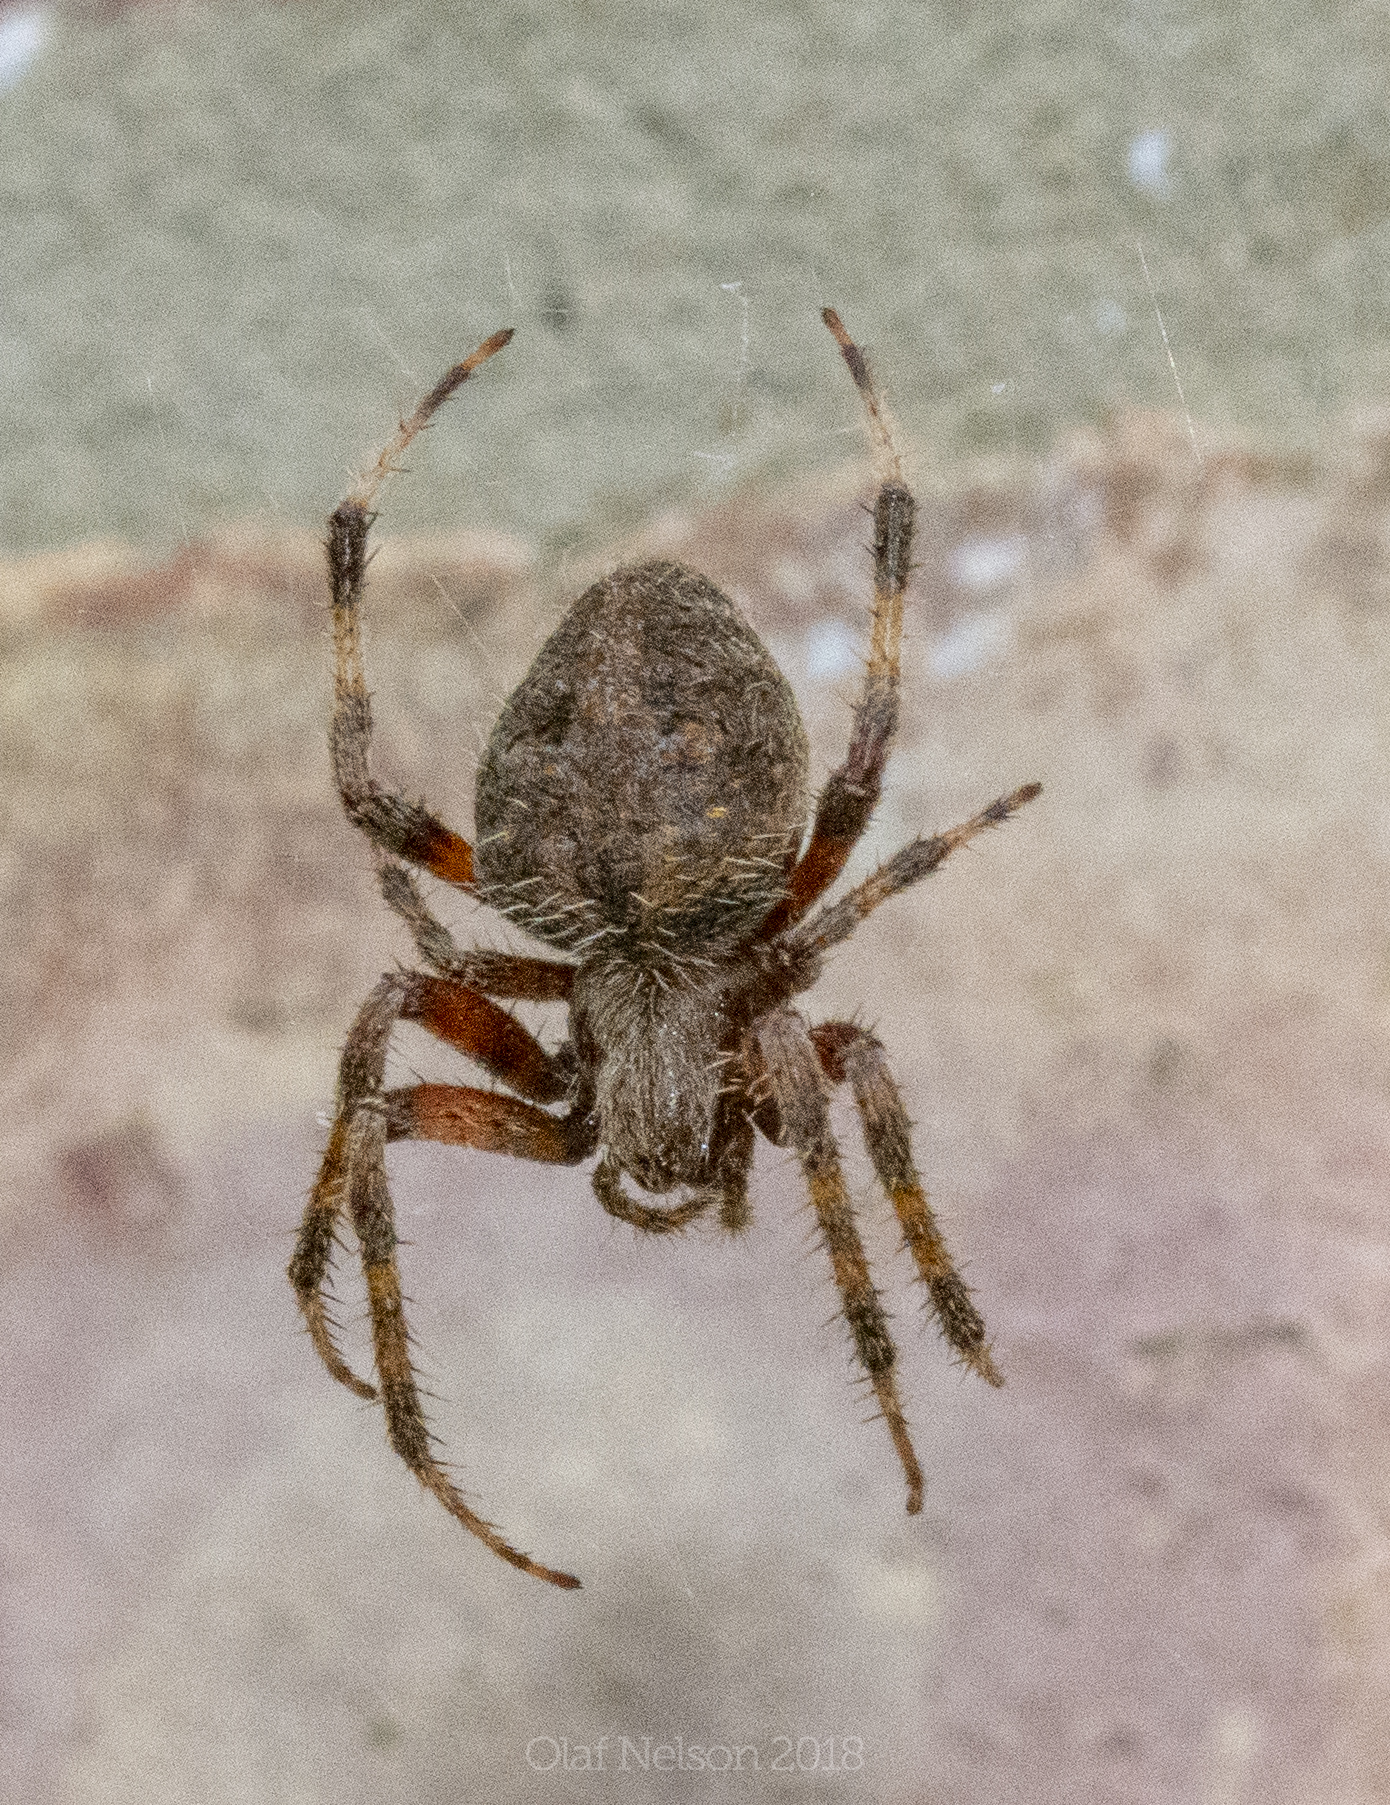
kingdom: Animalia
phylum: Arthropoda
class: Arachnida
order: Araneae
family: Araneidae
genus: Neoscona
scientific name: Neoscona crucifera
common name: Spotted orbweaver
